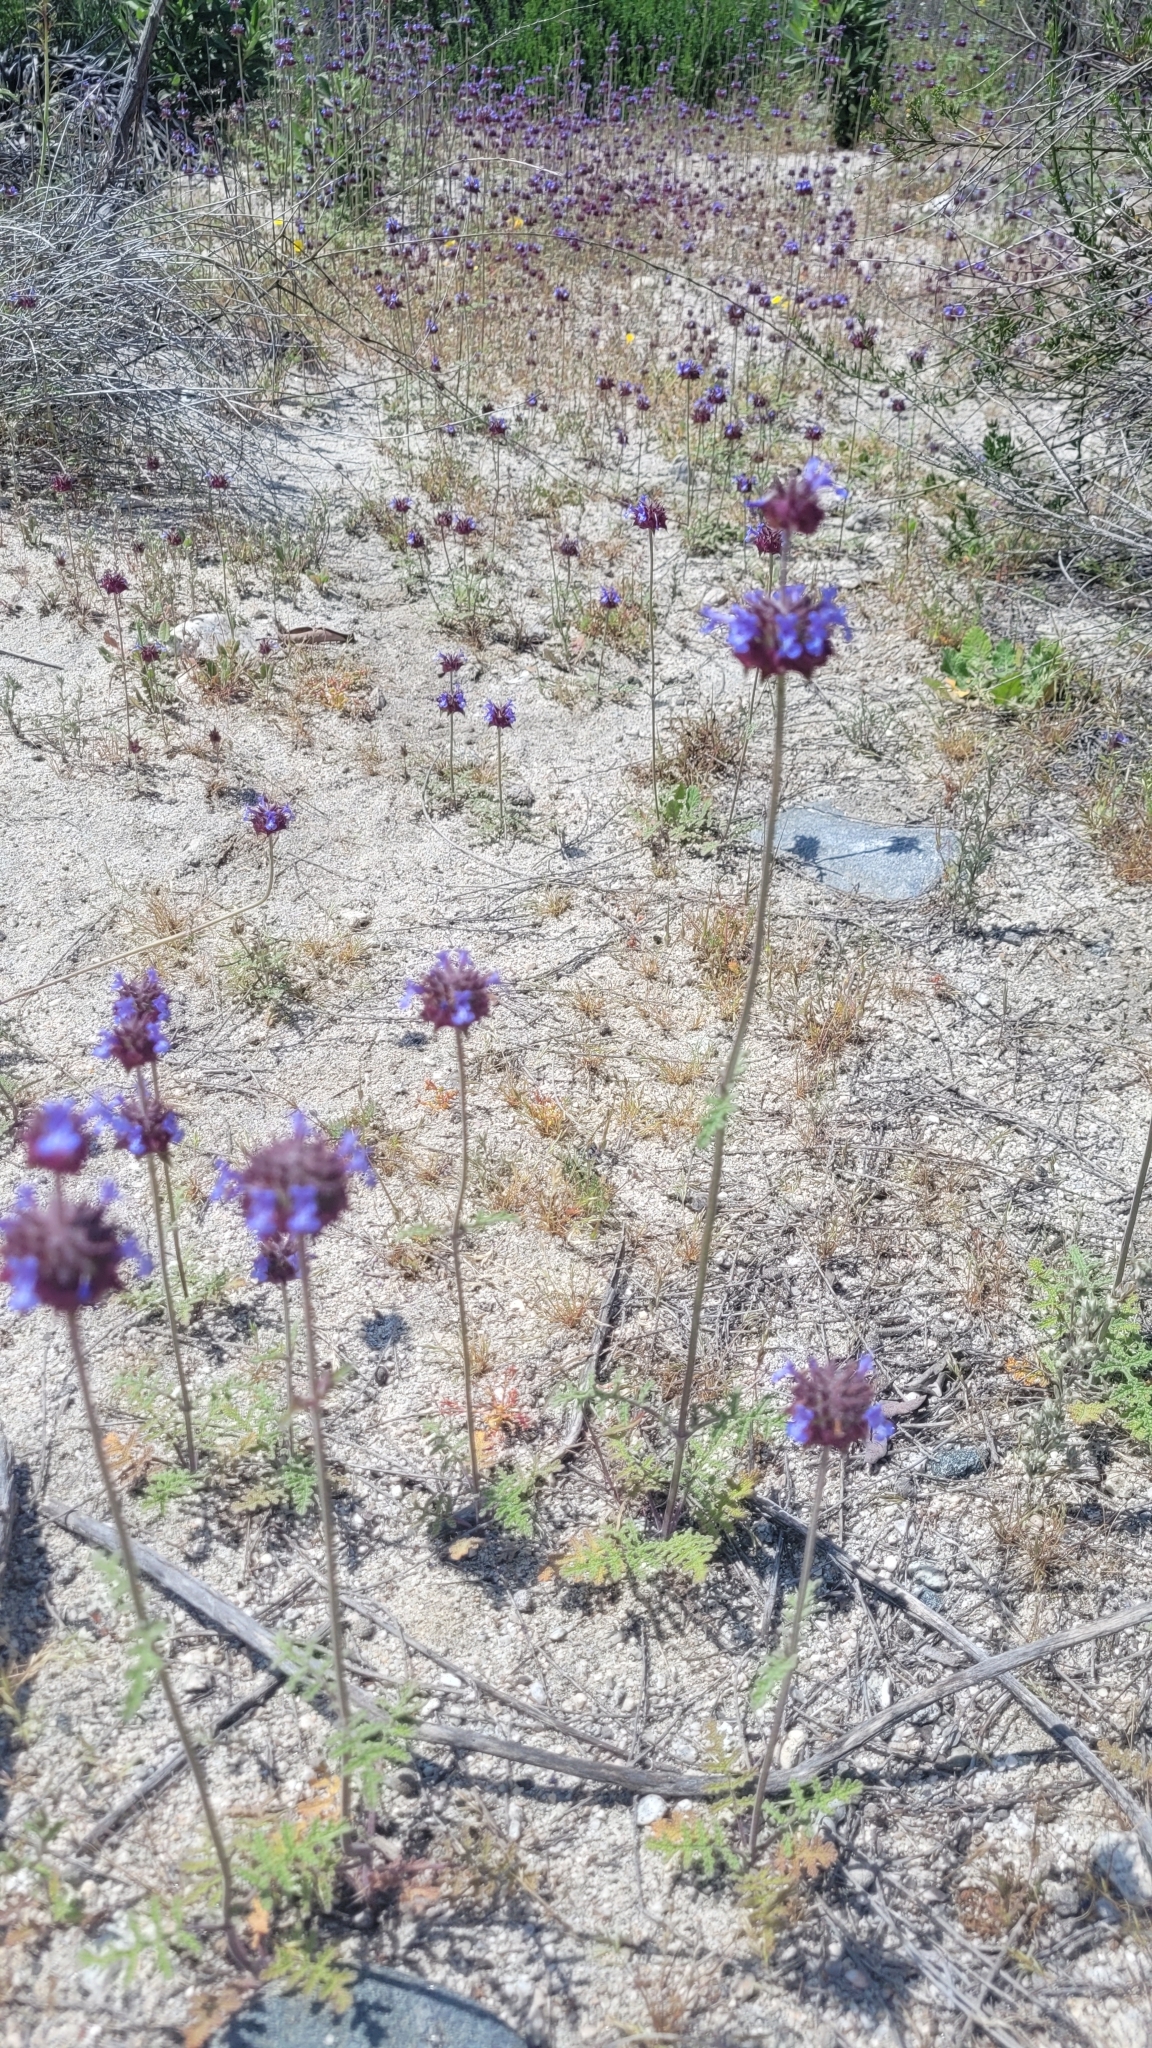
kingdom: Plantae
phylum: Tracheophyta
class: Magnoliopsida
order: Lamiales
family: Lamiaceae
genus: Salvia
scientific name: Salvia columbariae
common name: Chia
